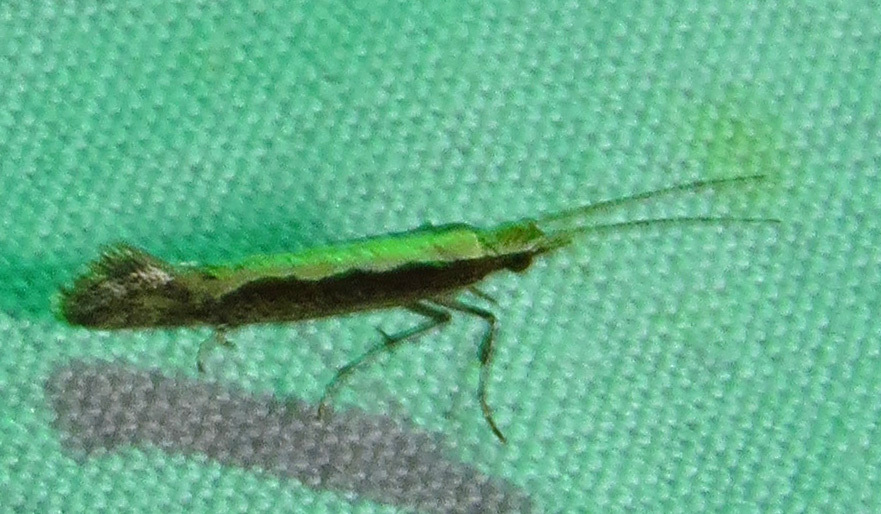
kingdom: Animalia
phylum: Arthropoda
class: Insecta
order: Lepidoptera
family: Plutellidae
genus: Plutella
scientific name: Plutella xylostella
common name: Diamond-back moth
